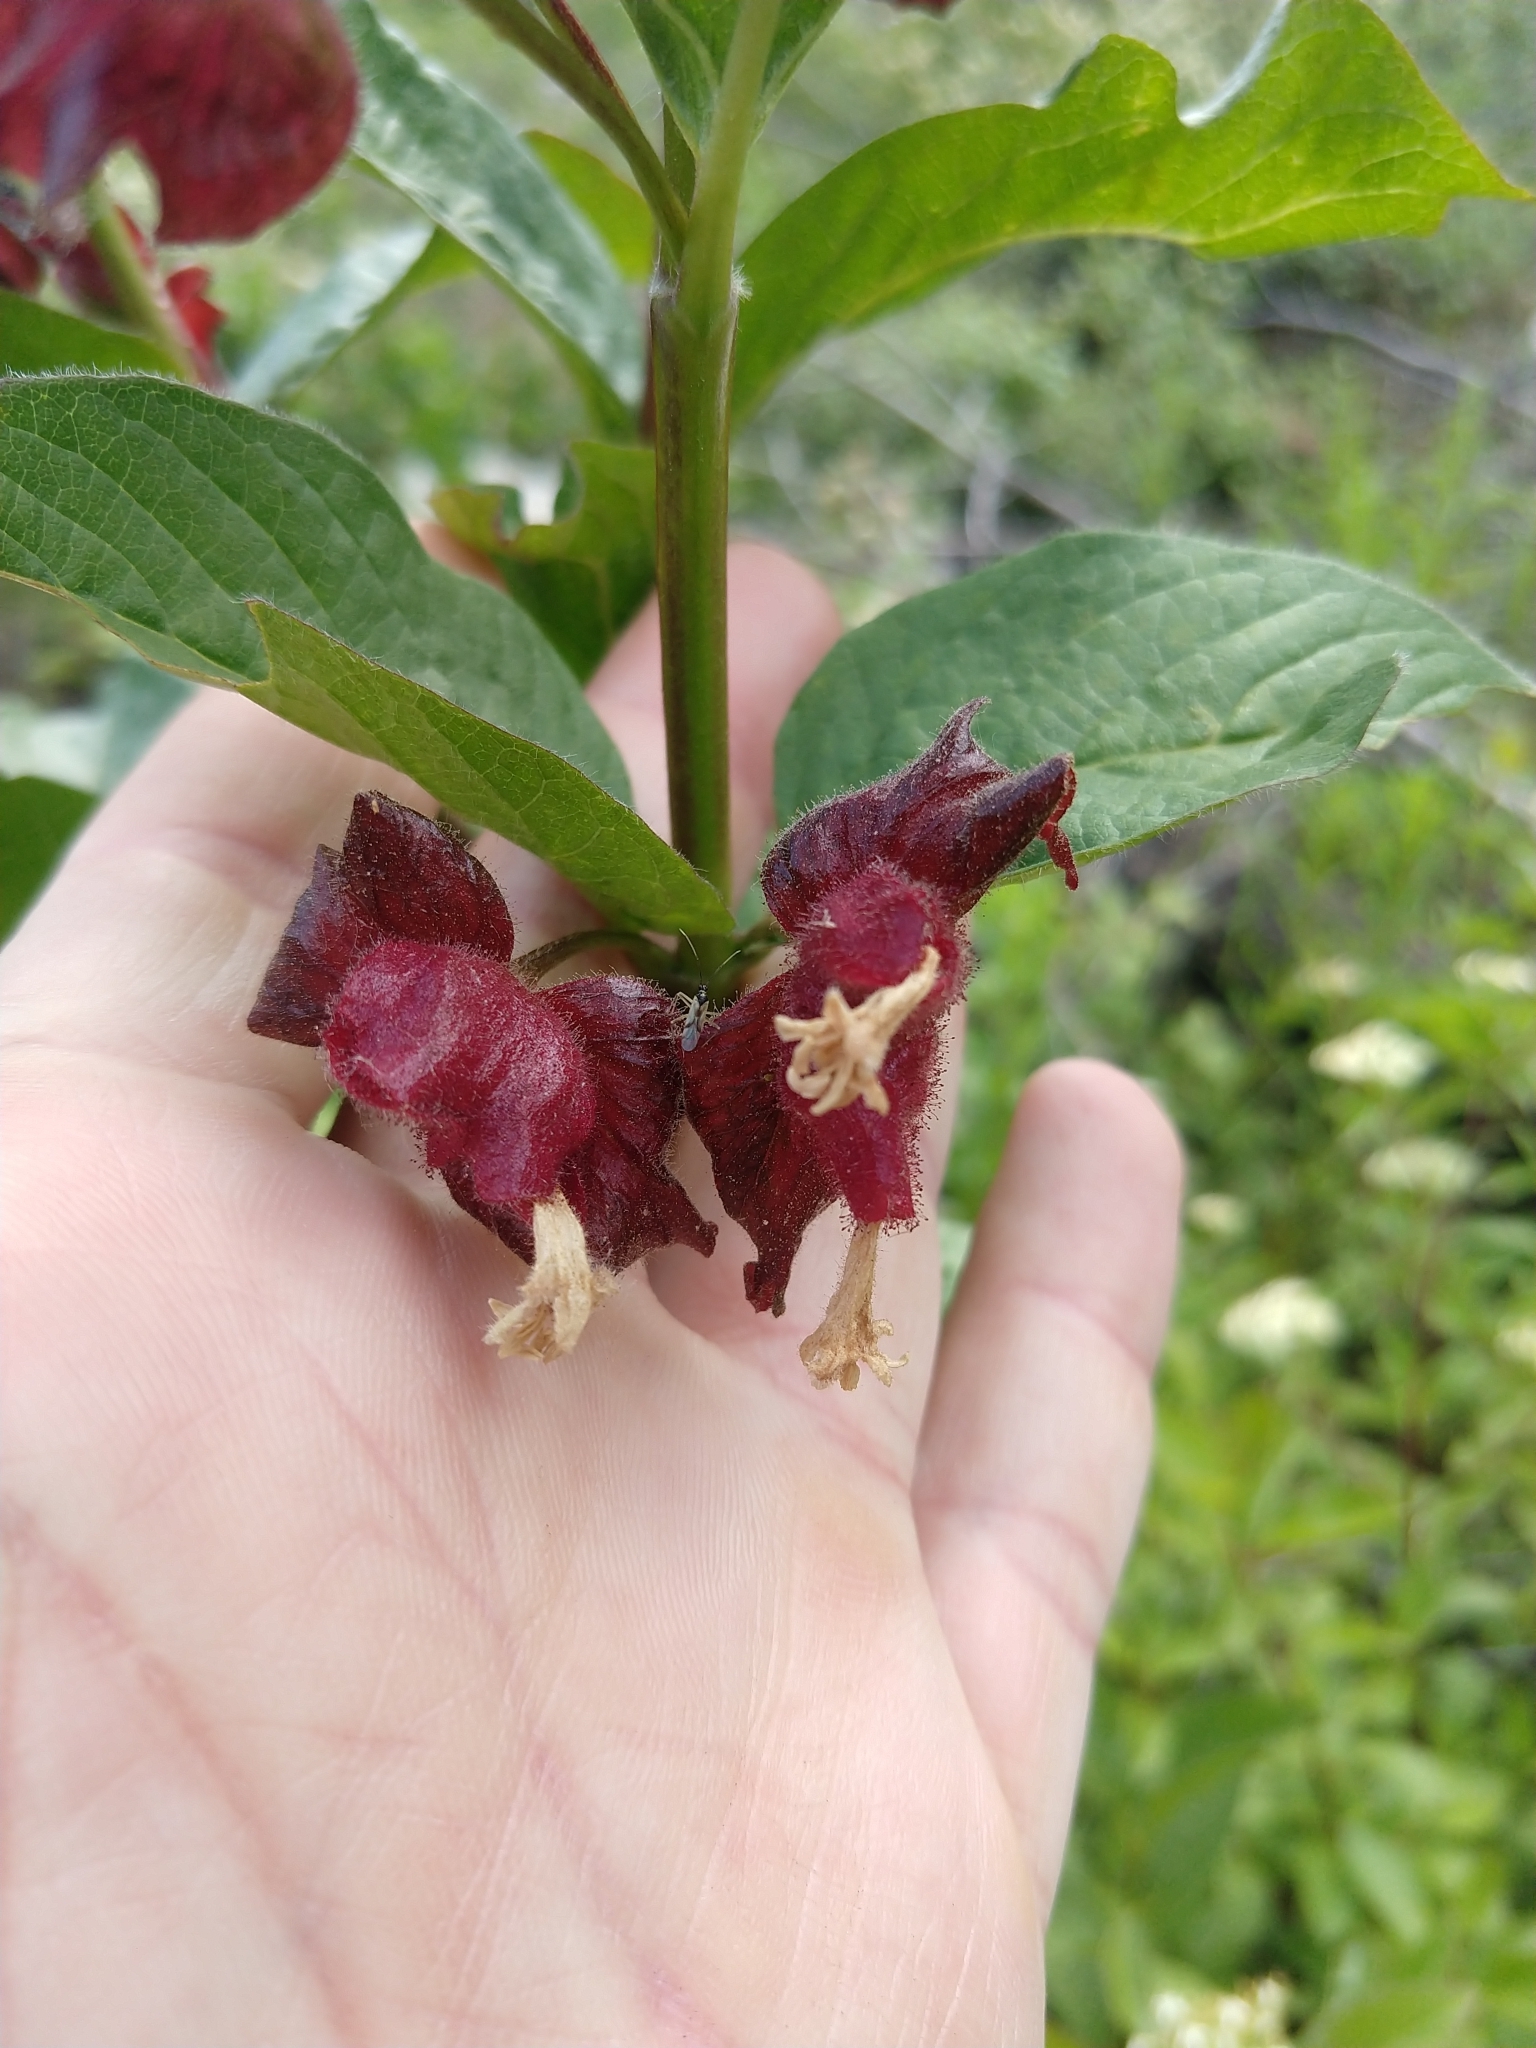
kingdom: Plantae
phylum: Tracheophyta
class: Magnoliopsida
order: Dipsacales
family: Caprifoliaceae
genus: Lonicera
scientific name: Lonicera involucrata
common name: Californian honeysuckle
